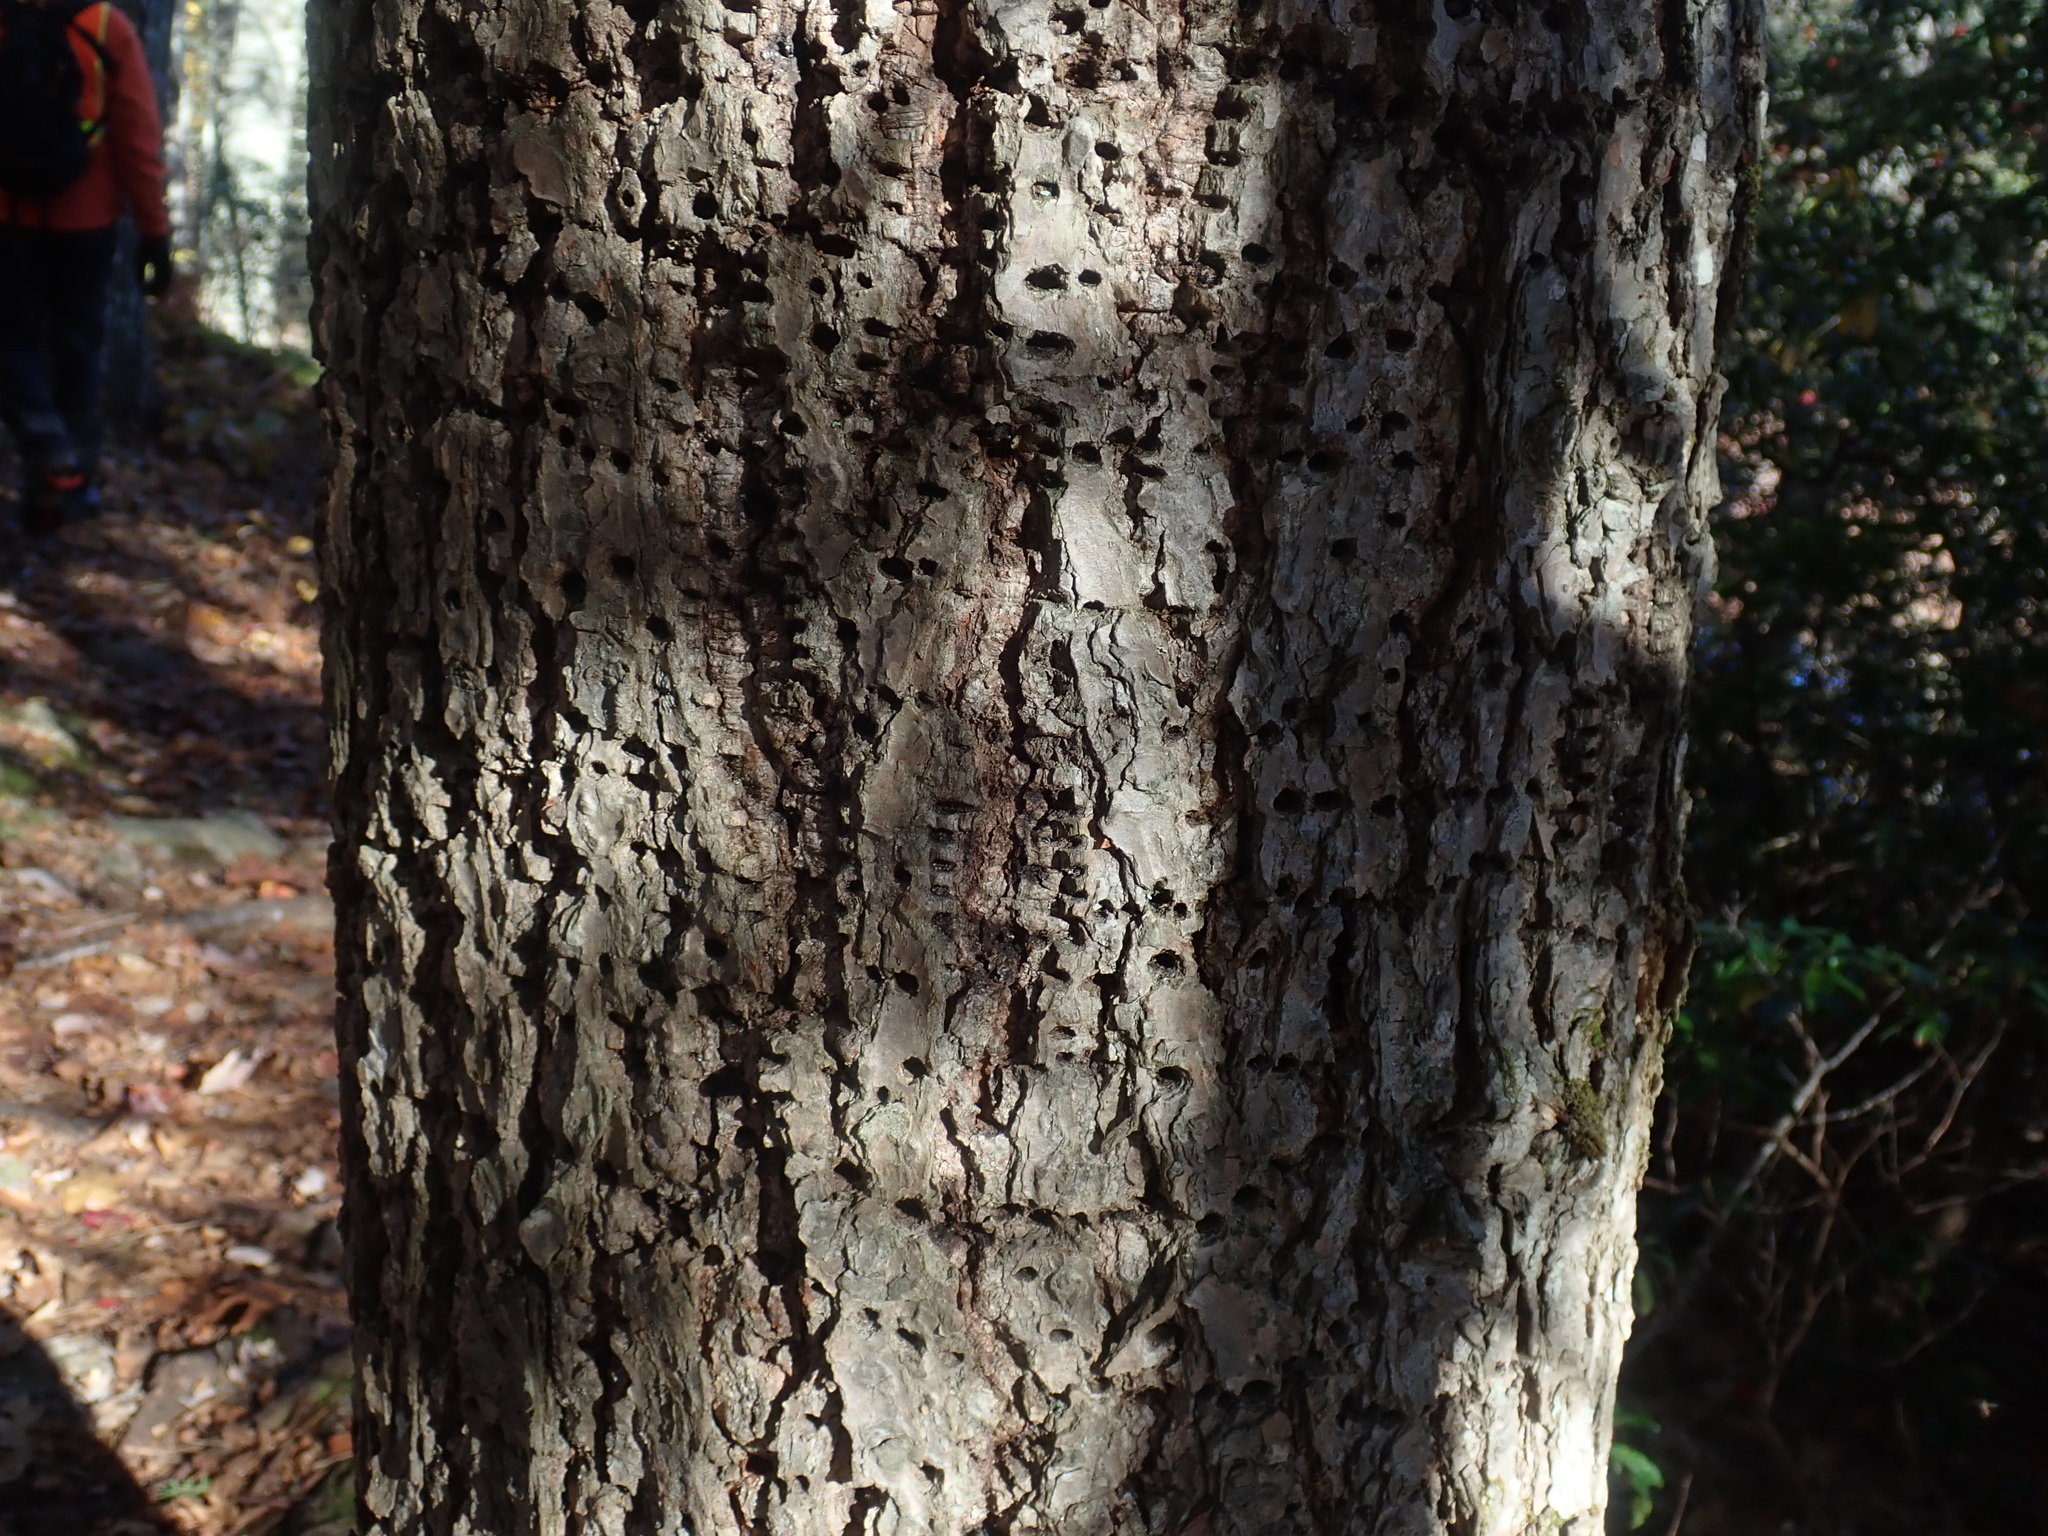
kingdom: Animalia
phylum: Chordata
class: Aves
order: Piciformes
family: Picidae
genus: Sphyrapicus
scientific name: Sphyrapicus varius
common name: Yellow-bellied sapsucker
